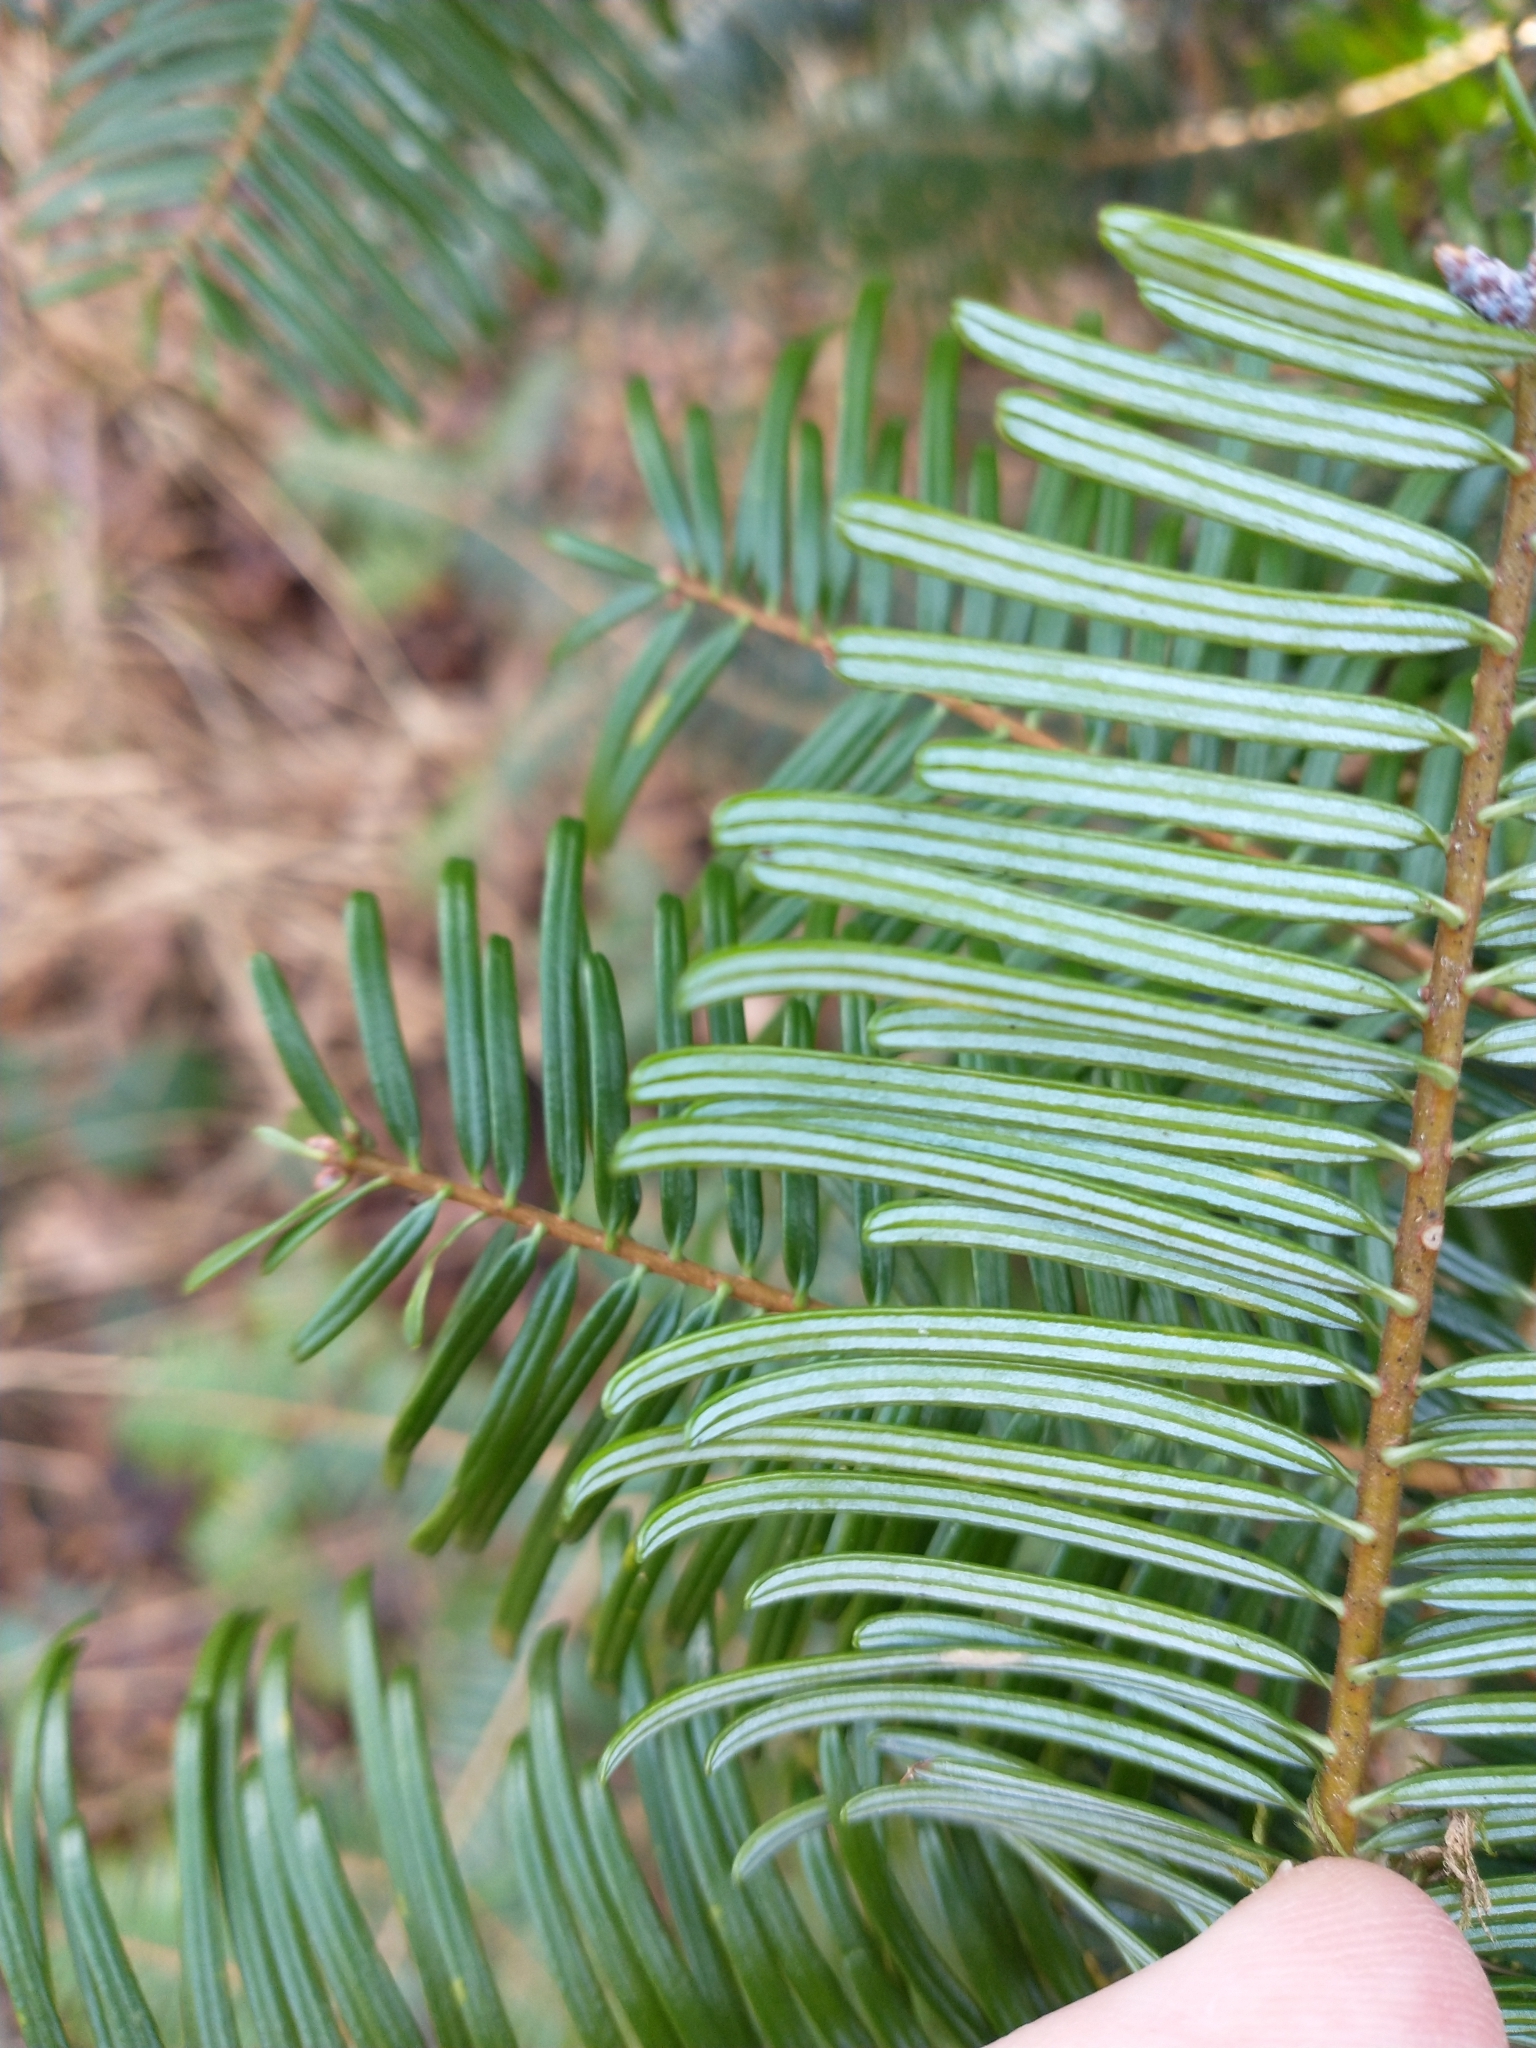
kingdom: Plantae
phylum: Tracheophyta
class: Pinopsida
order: Pinales
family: Pinaceae
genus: Abies
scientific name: Abies grandis
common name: Giant fir
